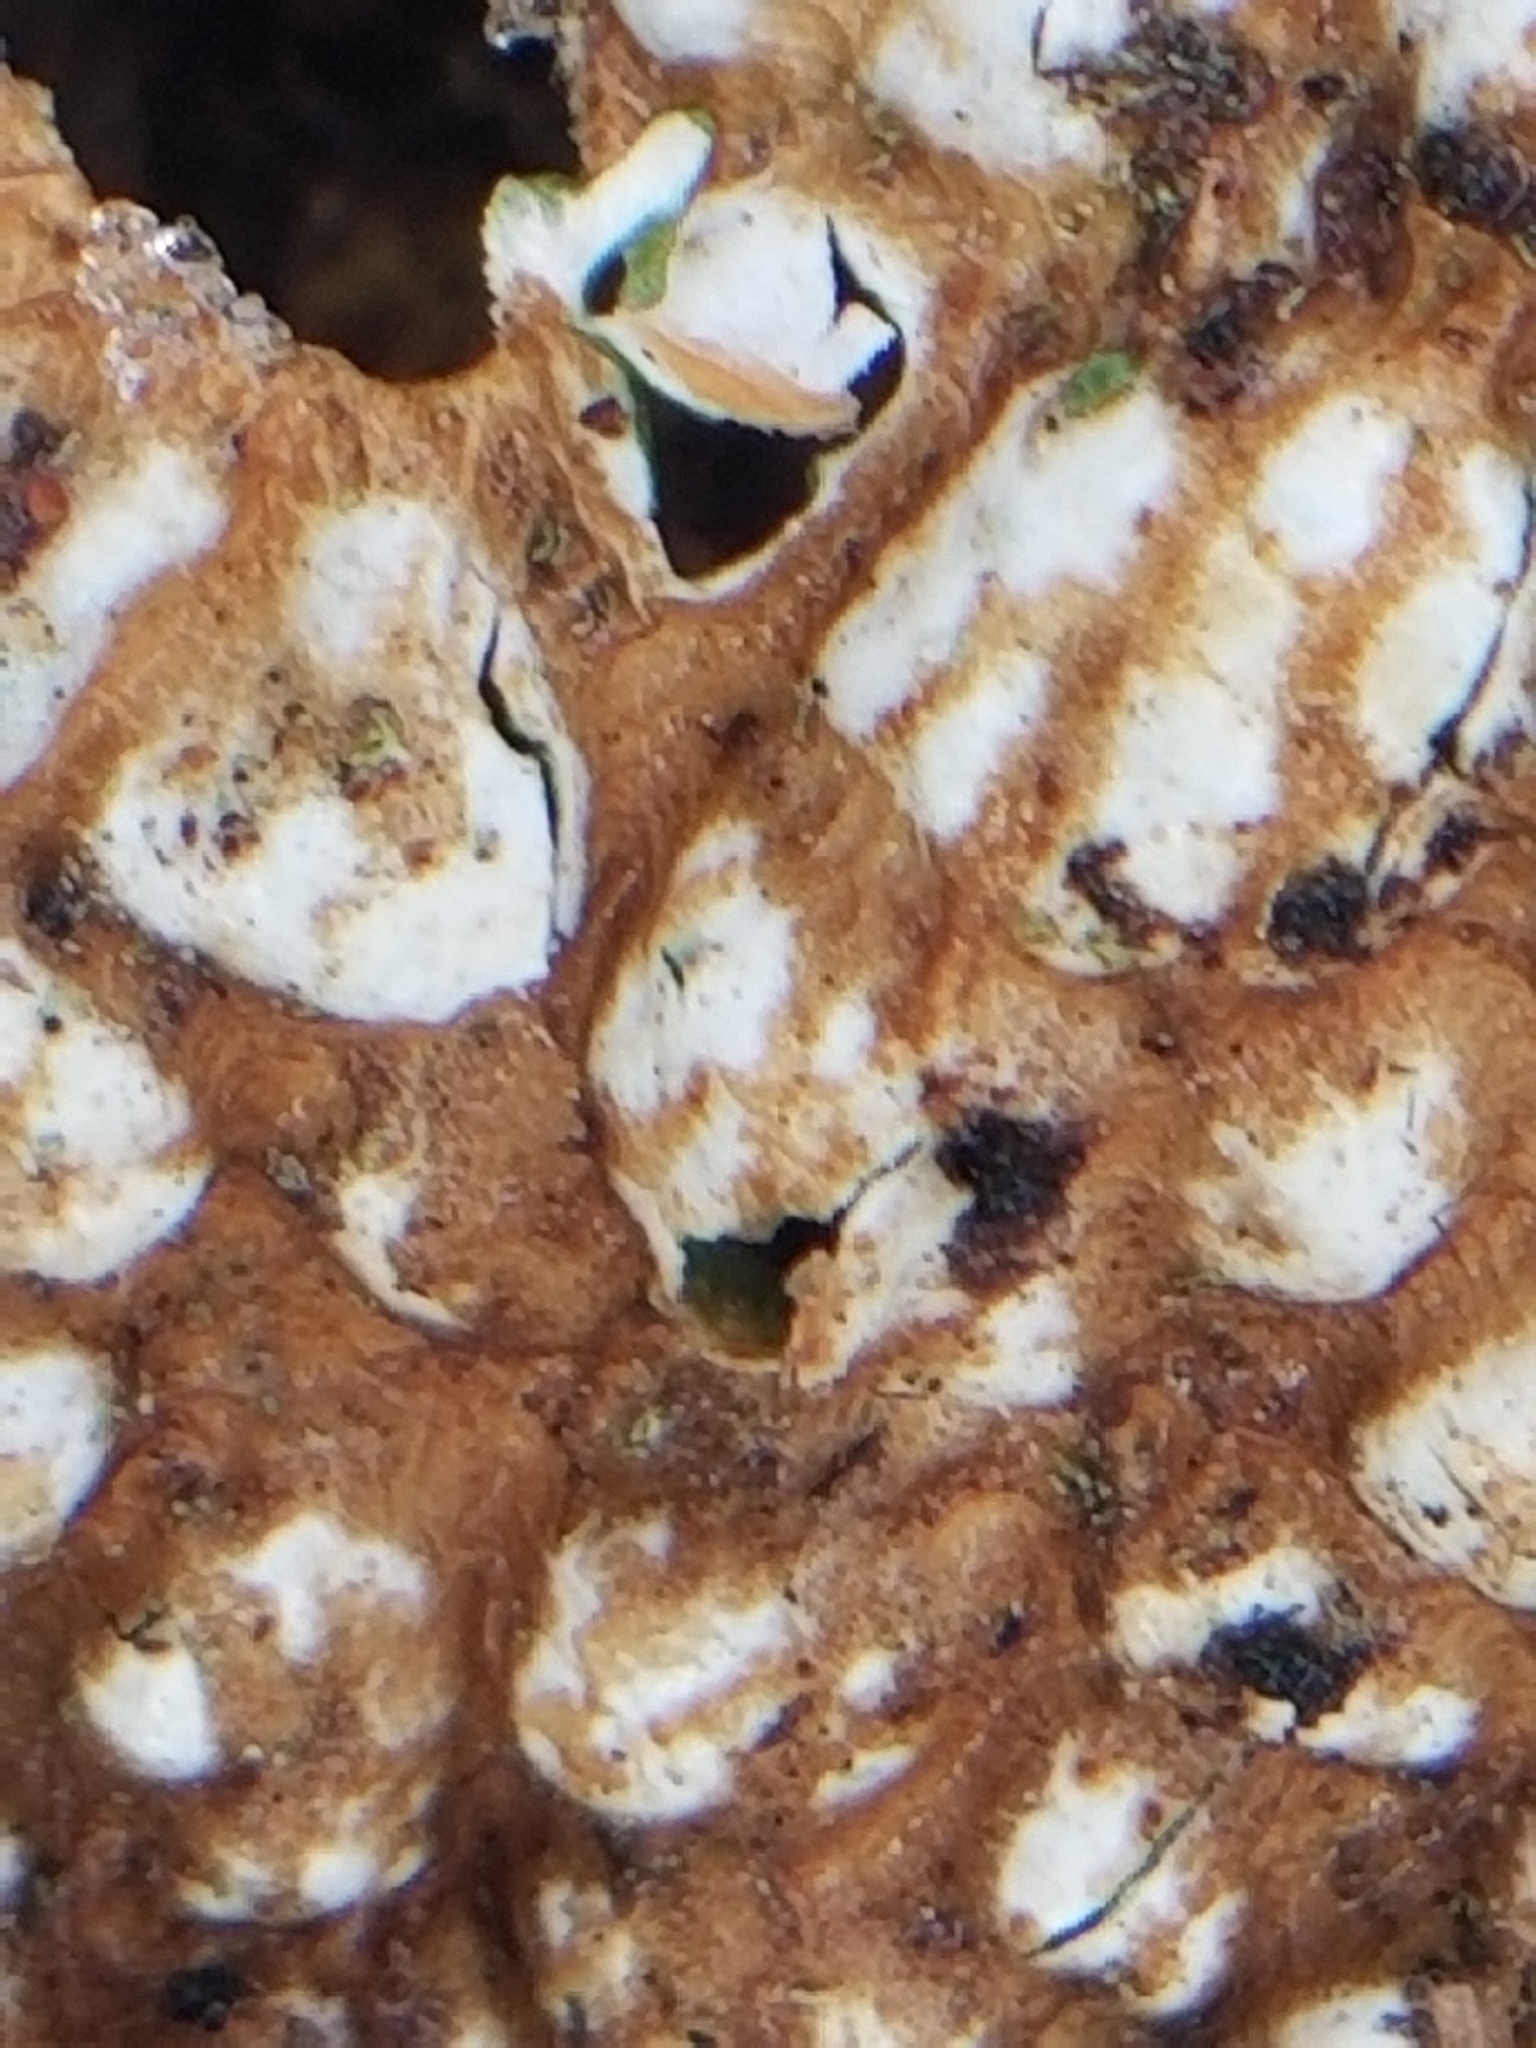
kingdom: Fungi
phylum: Ascomycota
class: Lecanoromycetes
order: Peltigerales
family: Lobariaceae
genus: Lobaria
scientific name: Lobaria pulmonaria
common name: Lungwort
